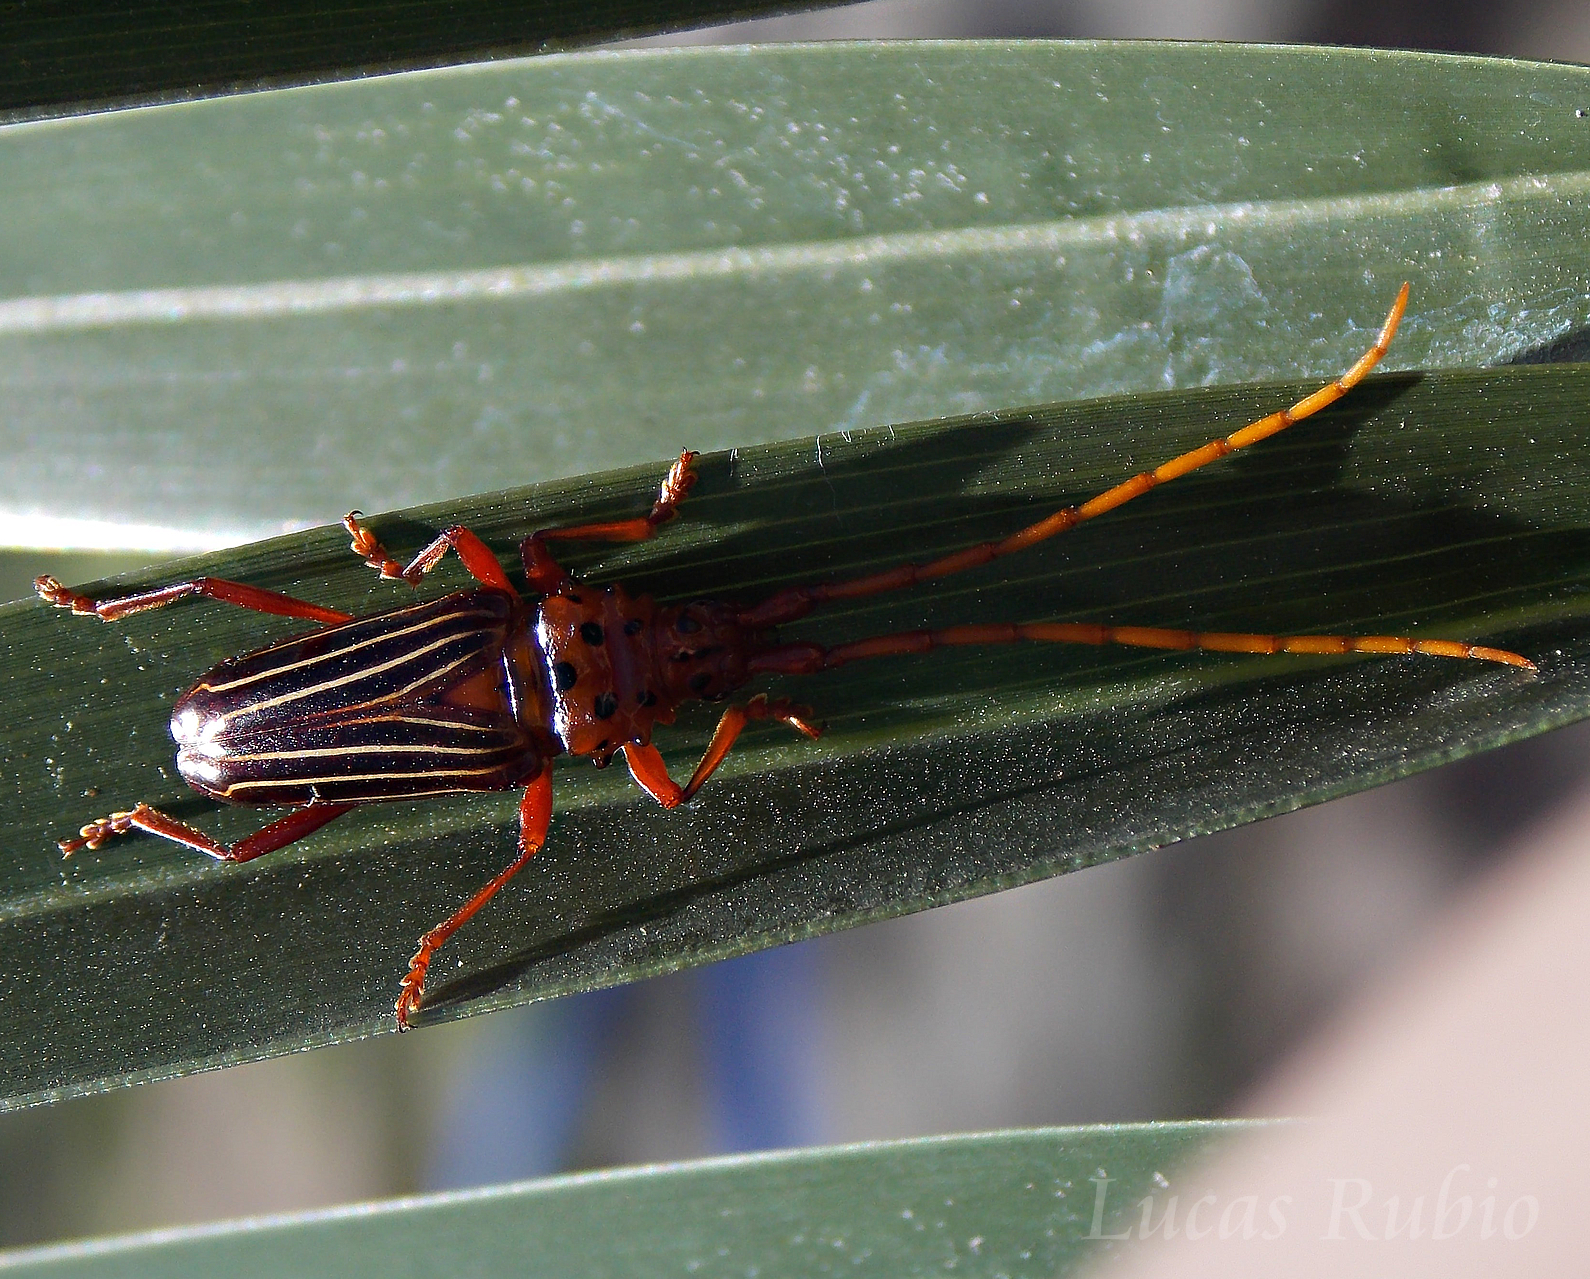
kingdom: Animalia
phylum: Arthropoda
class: Insecta
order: Coleoptera
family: Cerambycidae
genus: Chydarteres
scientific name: Chydarteres striatus
